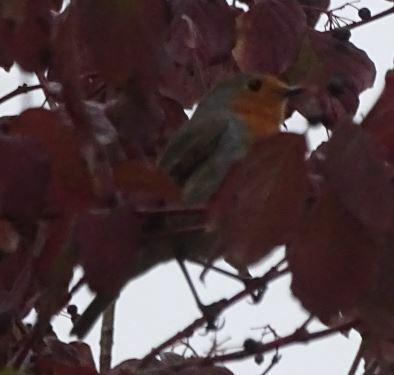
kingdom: Animalia
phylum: Chordata
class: Aves
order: Passeriformes
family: Muscicapidae
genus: Erithacus
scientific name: Erithacus rubecula
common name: European robin
